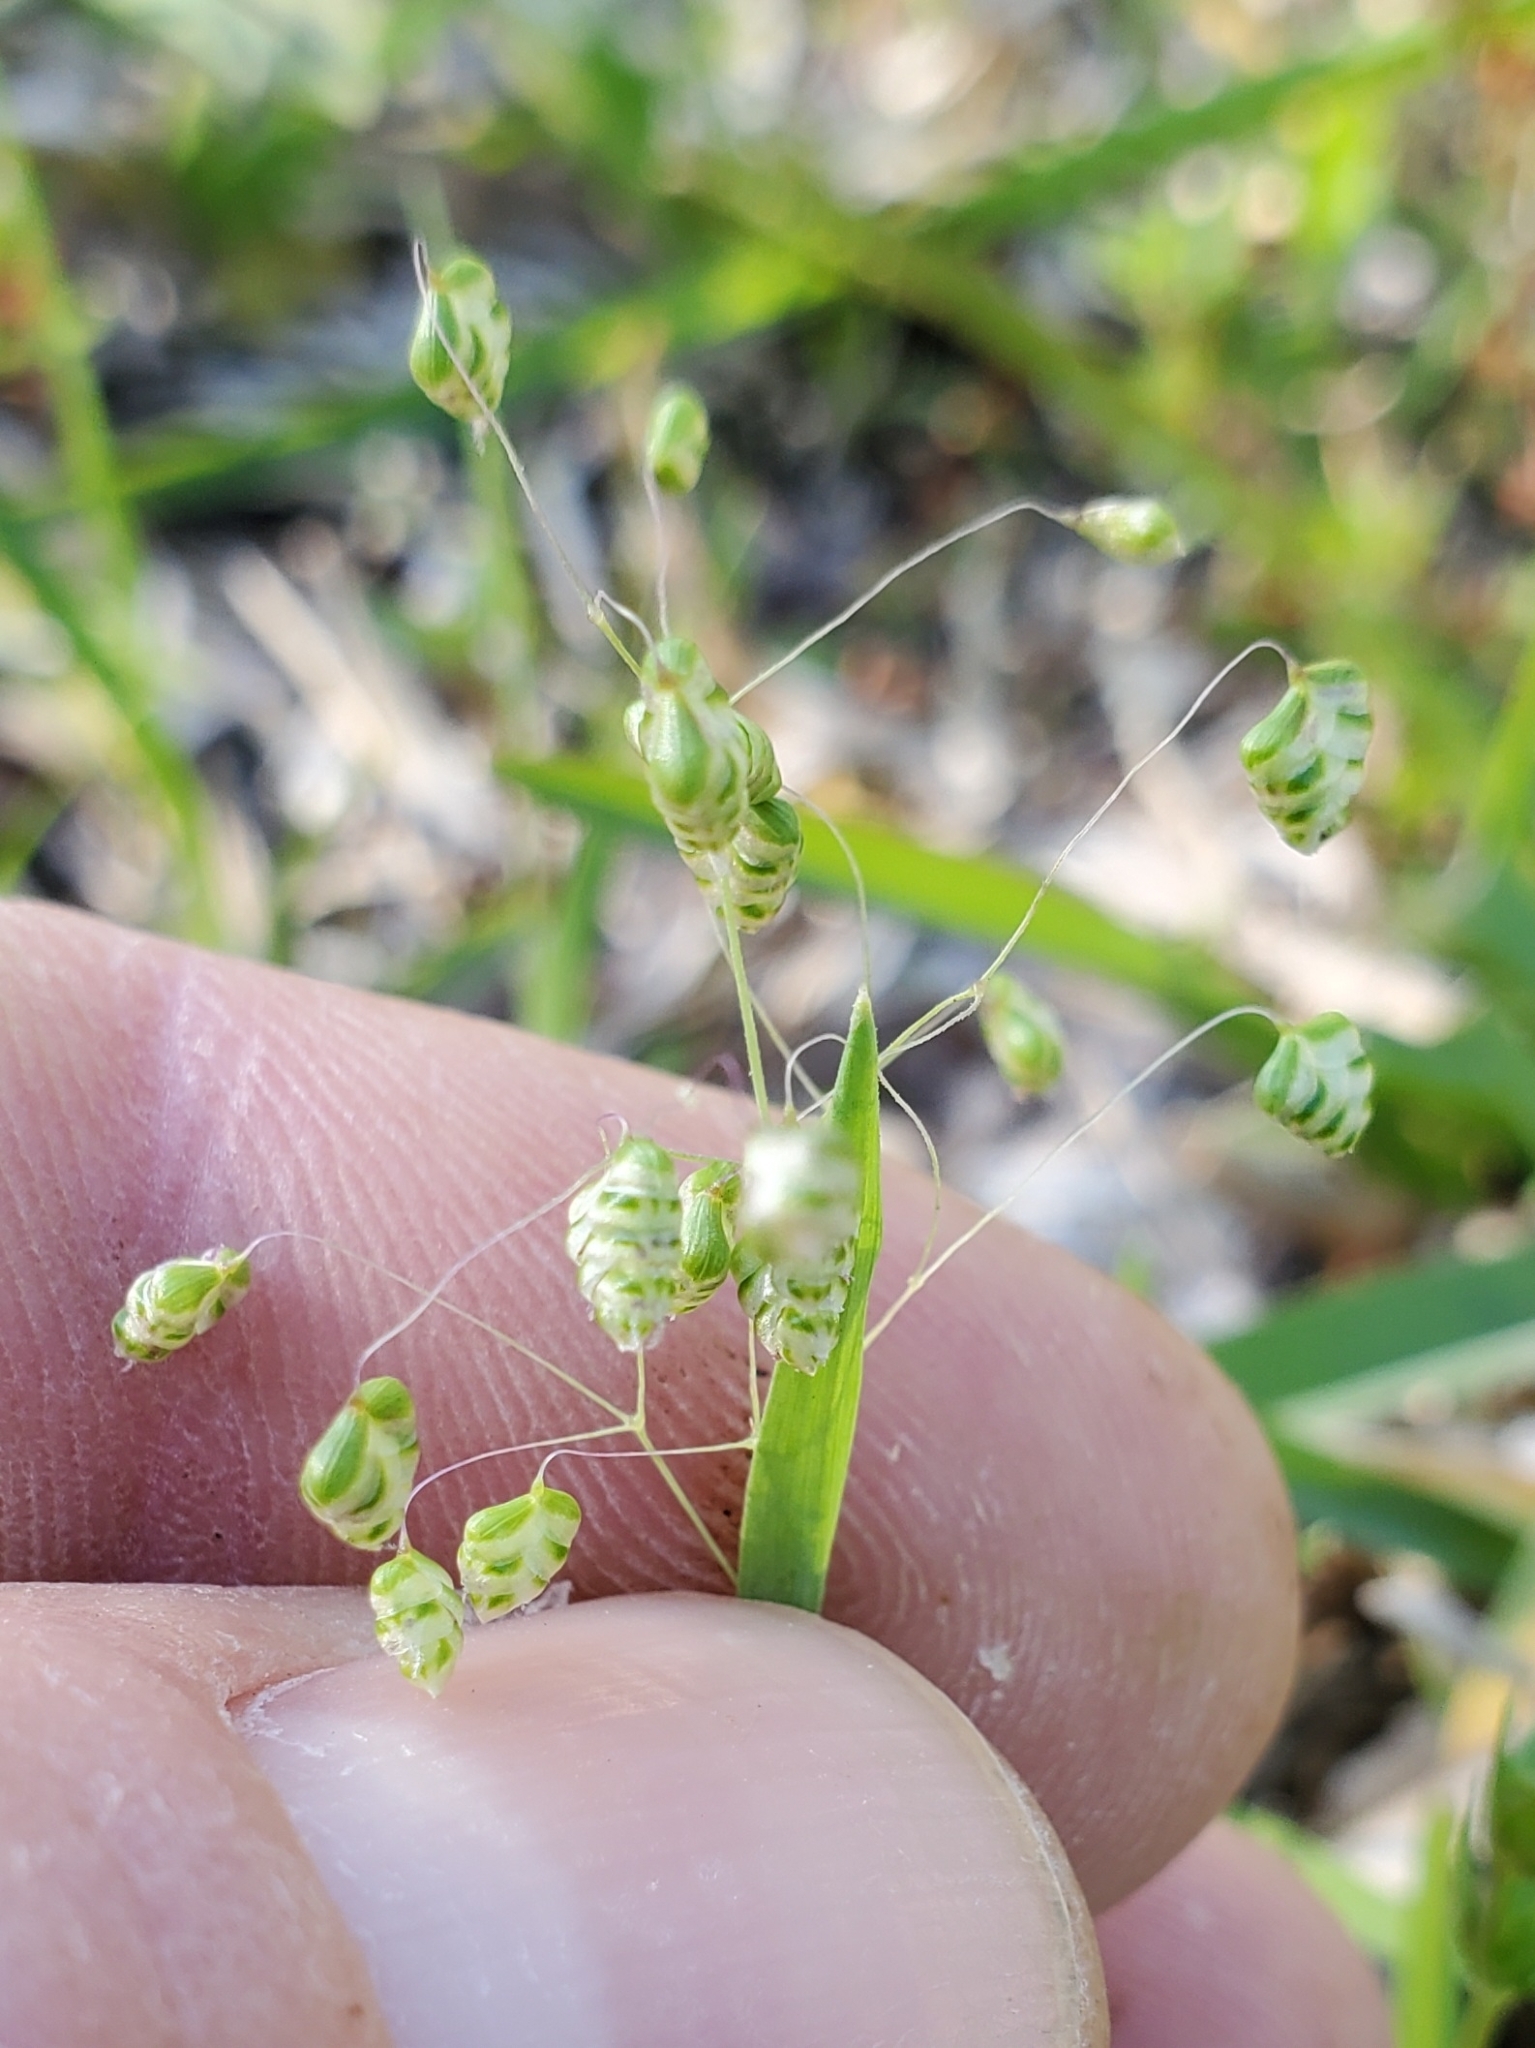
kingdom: Plantae
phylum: Tracheophyta
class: Liliopsida
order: Poales
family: Poaceae
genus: Briza
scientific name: Briza minor
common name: Lesser quaking-grass
